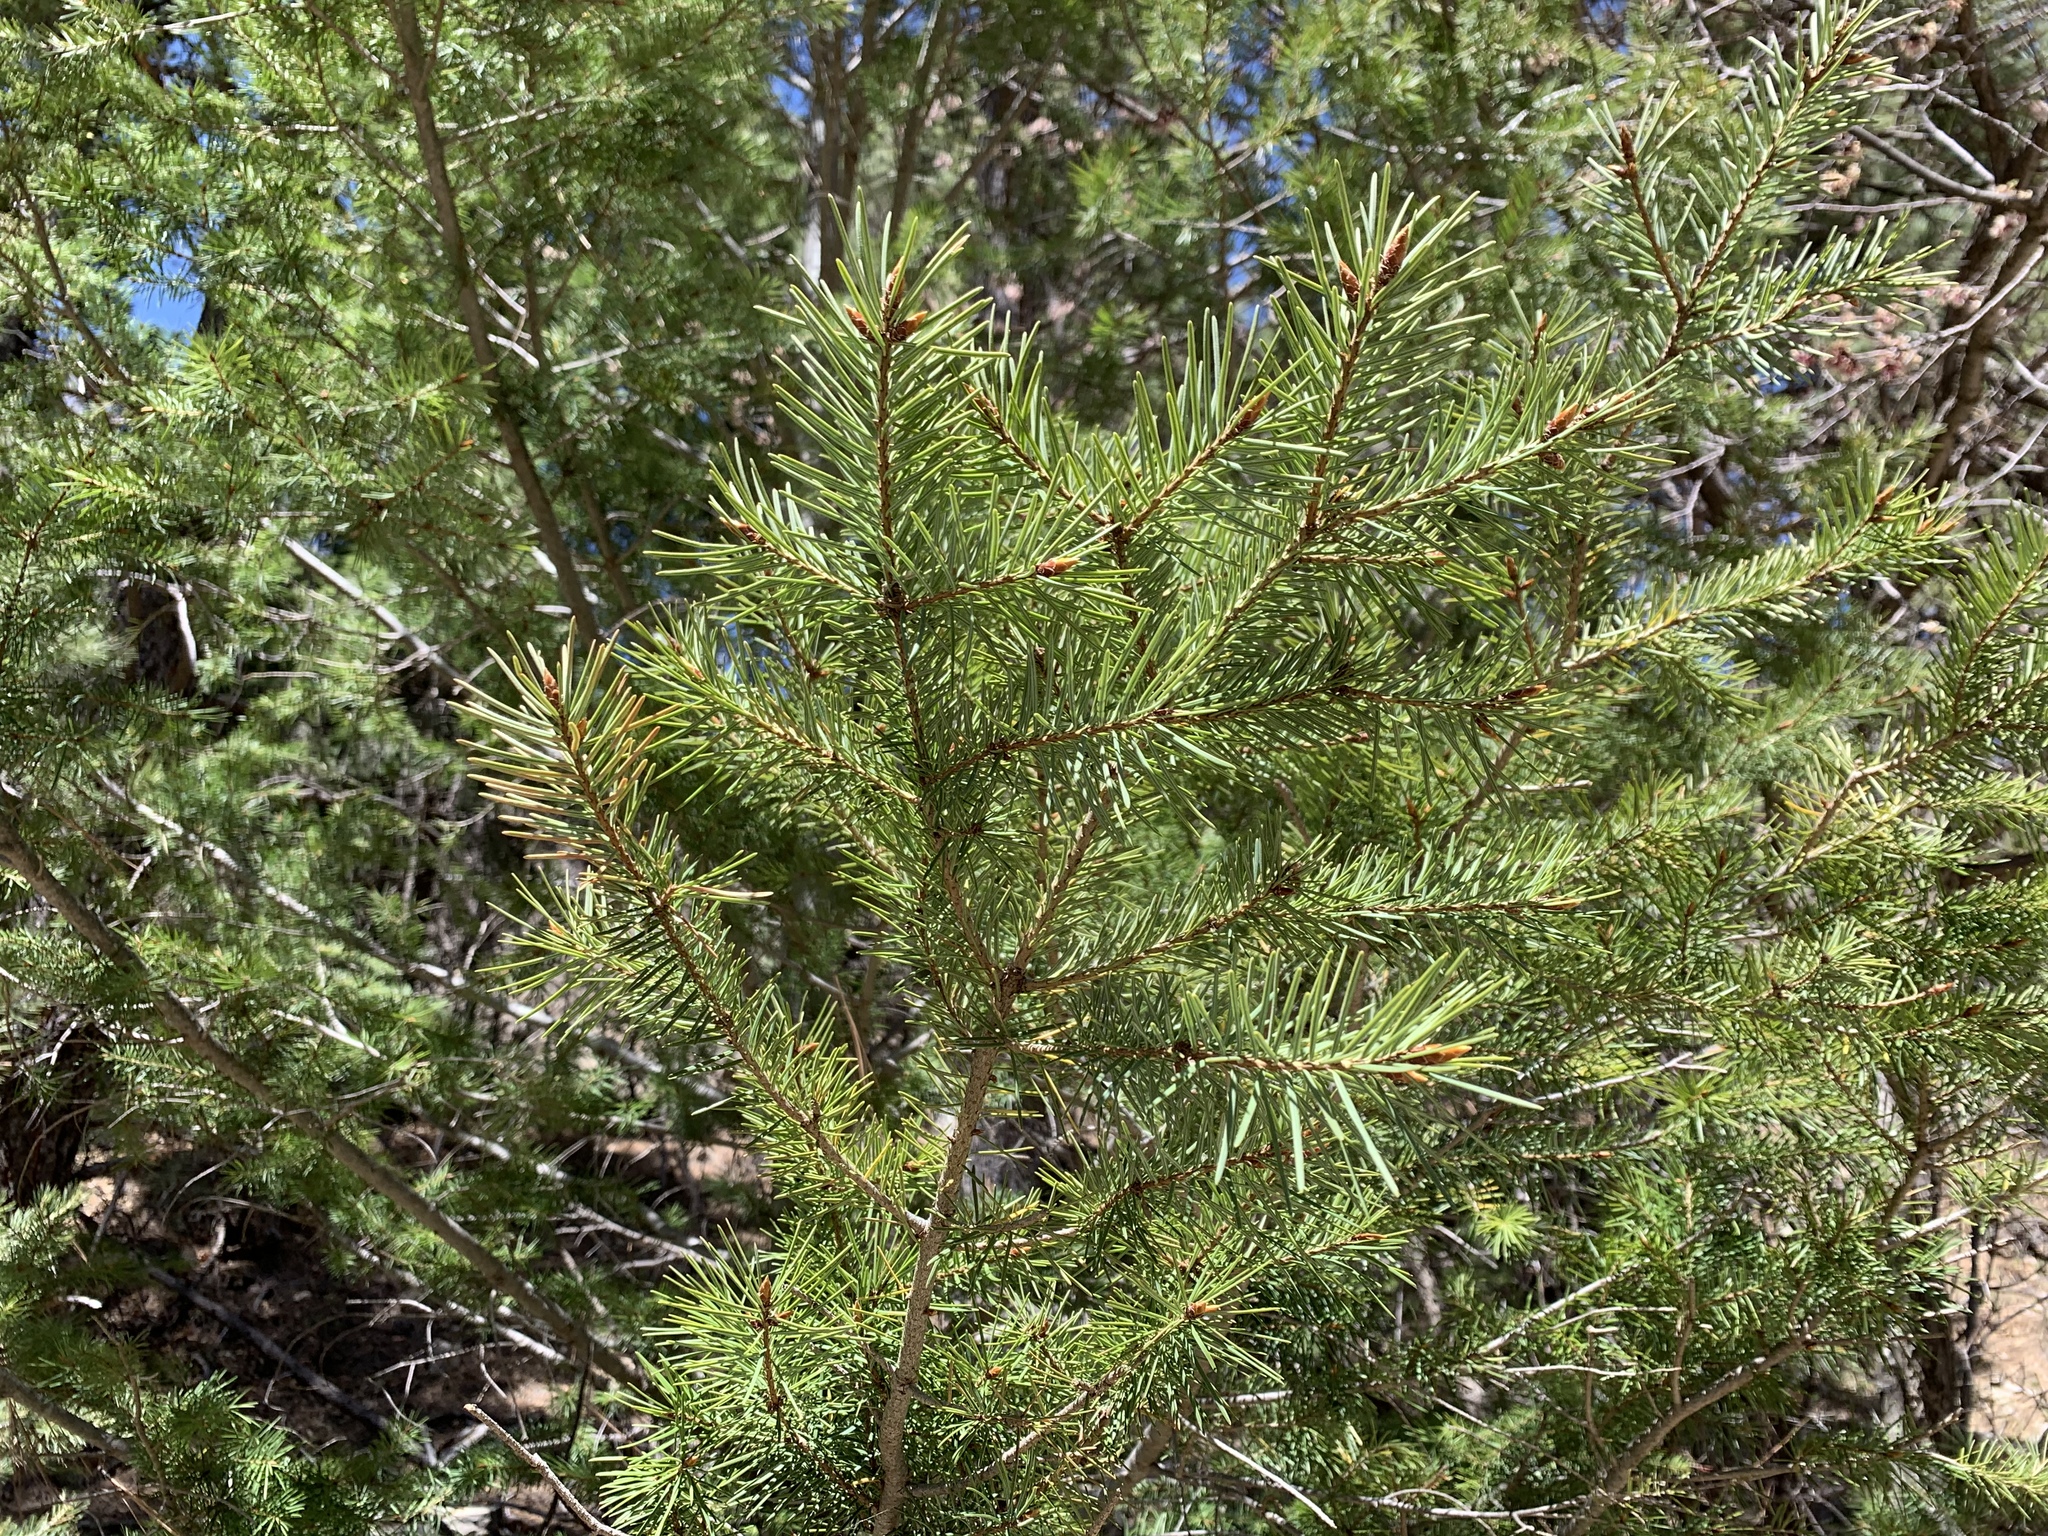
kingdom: Plantae
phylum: Tracheophyta
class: Pinopsida
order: Pinales
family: Pinaceae
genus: Pinus
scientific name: Pinus edulis
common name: Colorado pinyon
